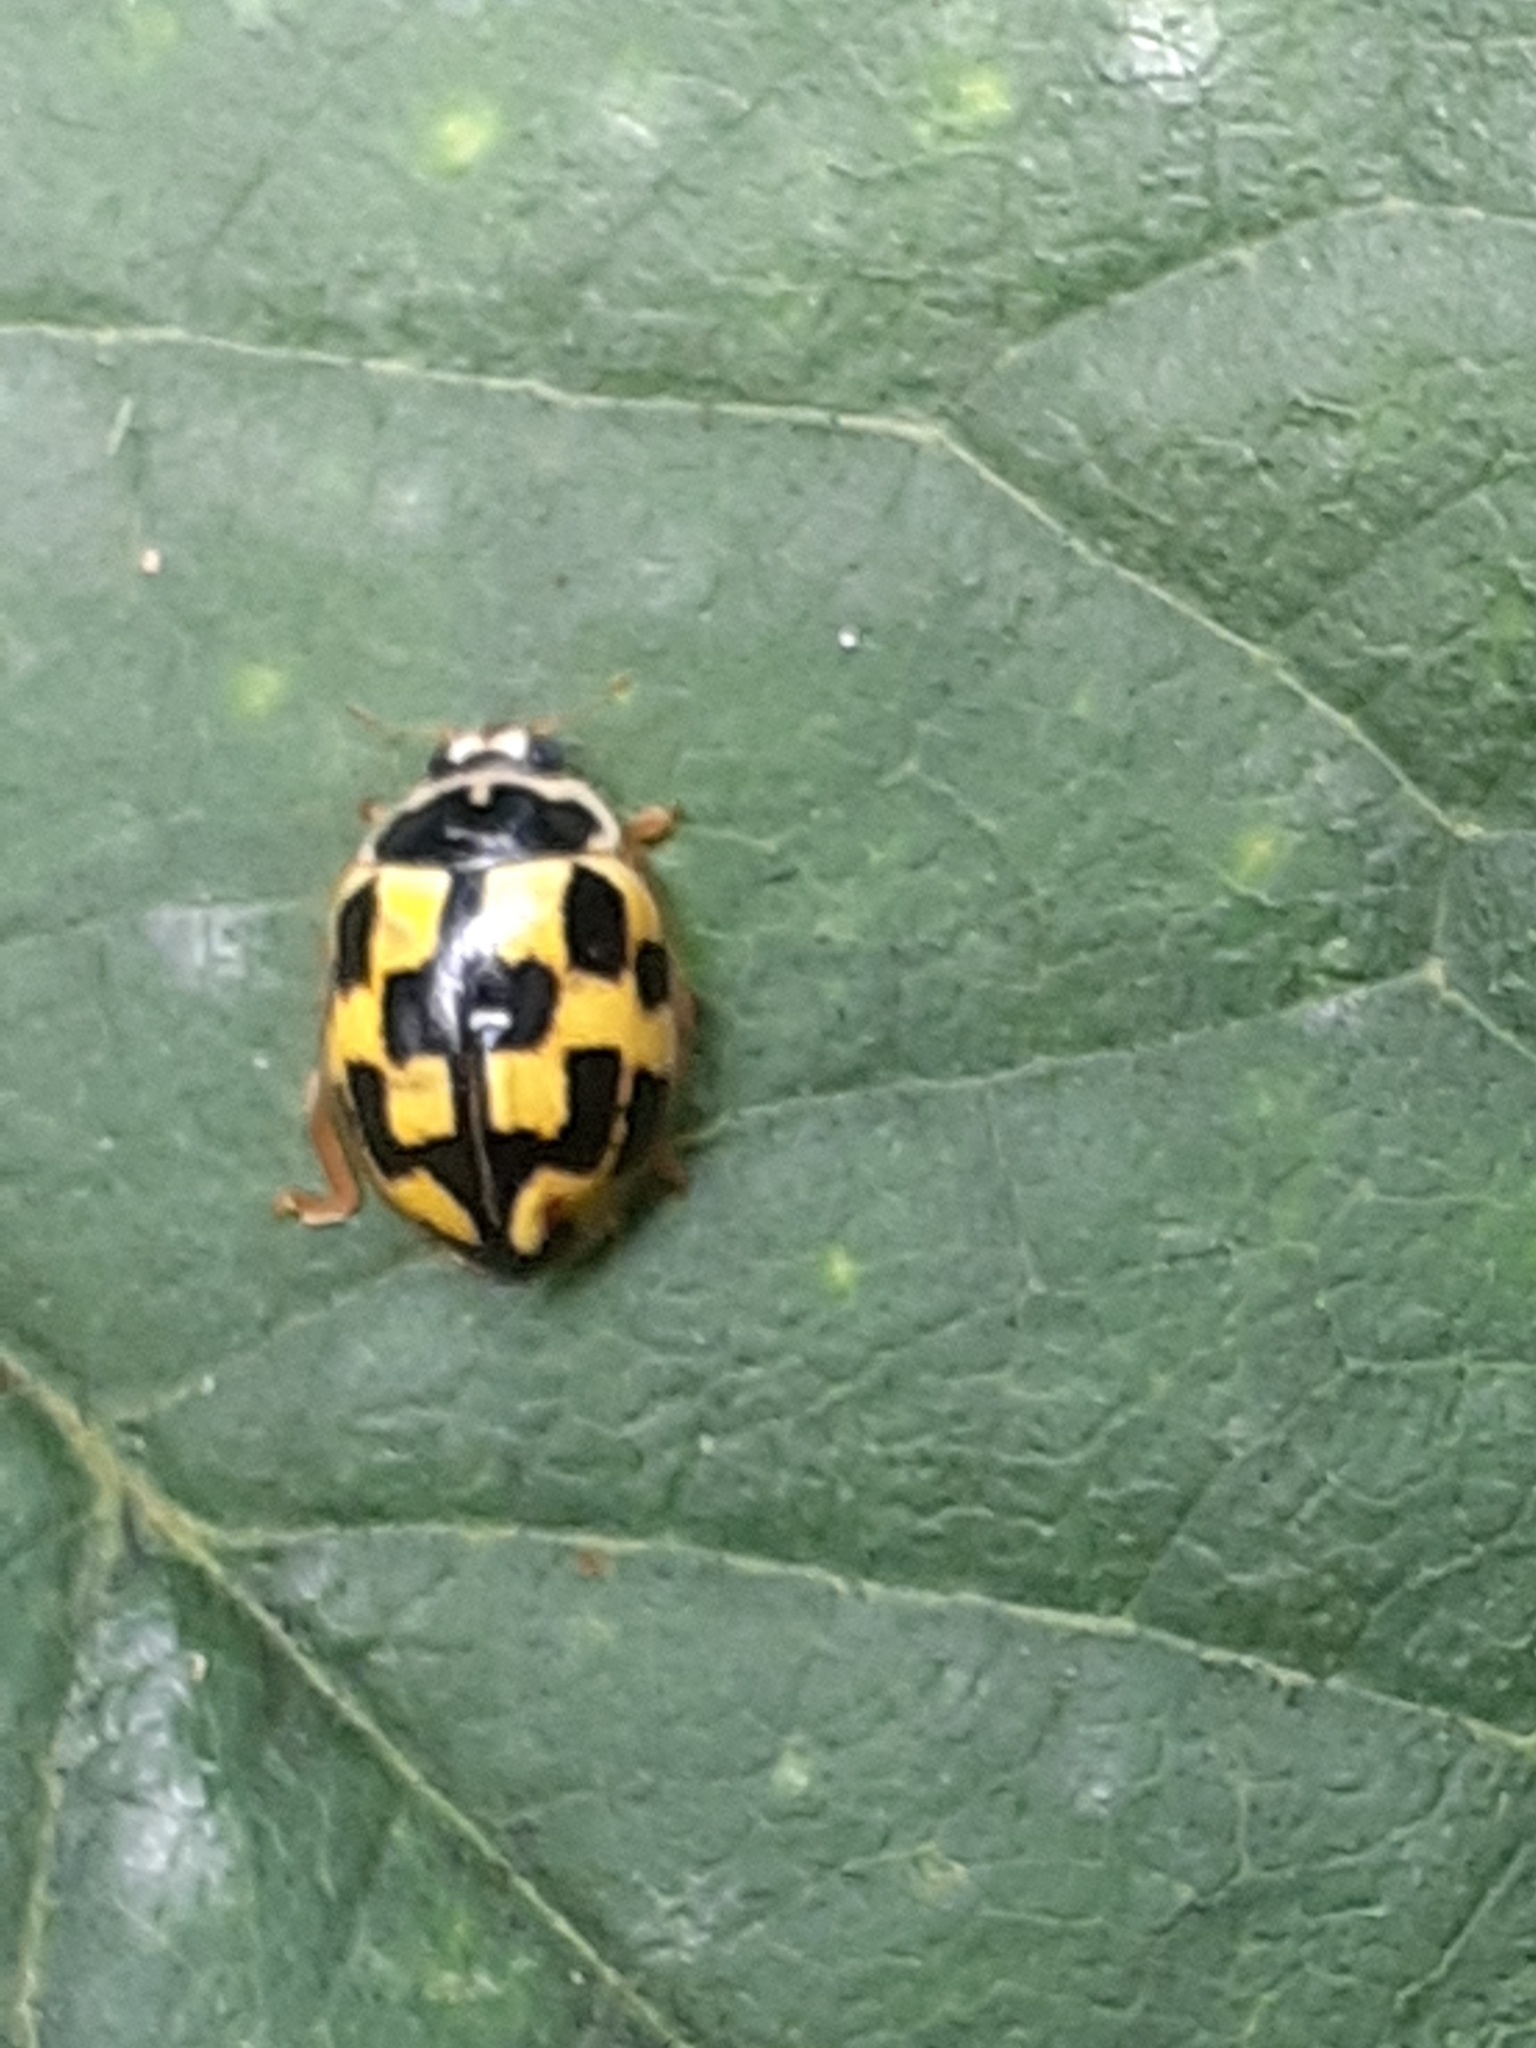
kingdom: Animalia
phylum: Arthropoda
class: Insecta
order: Coleoptera
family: Coccinellidae
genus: Propylaea
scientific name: Propylaea quatuordecimpunctata
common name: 14-spotted ladybird beetle
